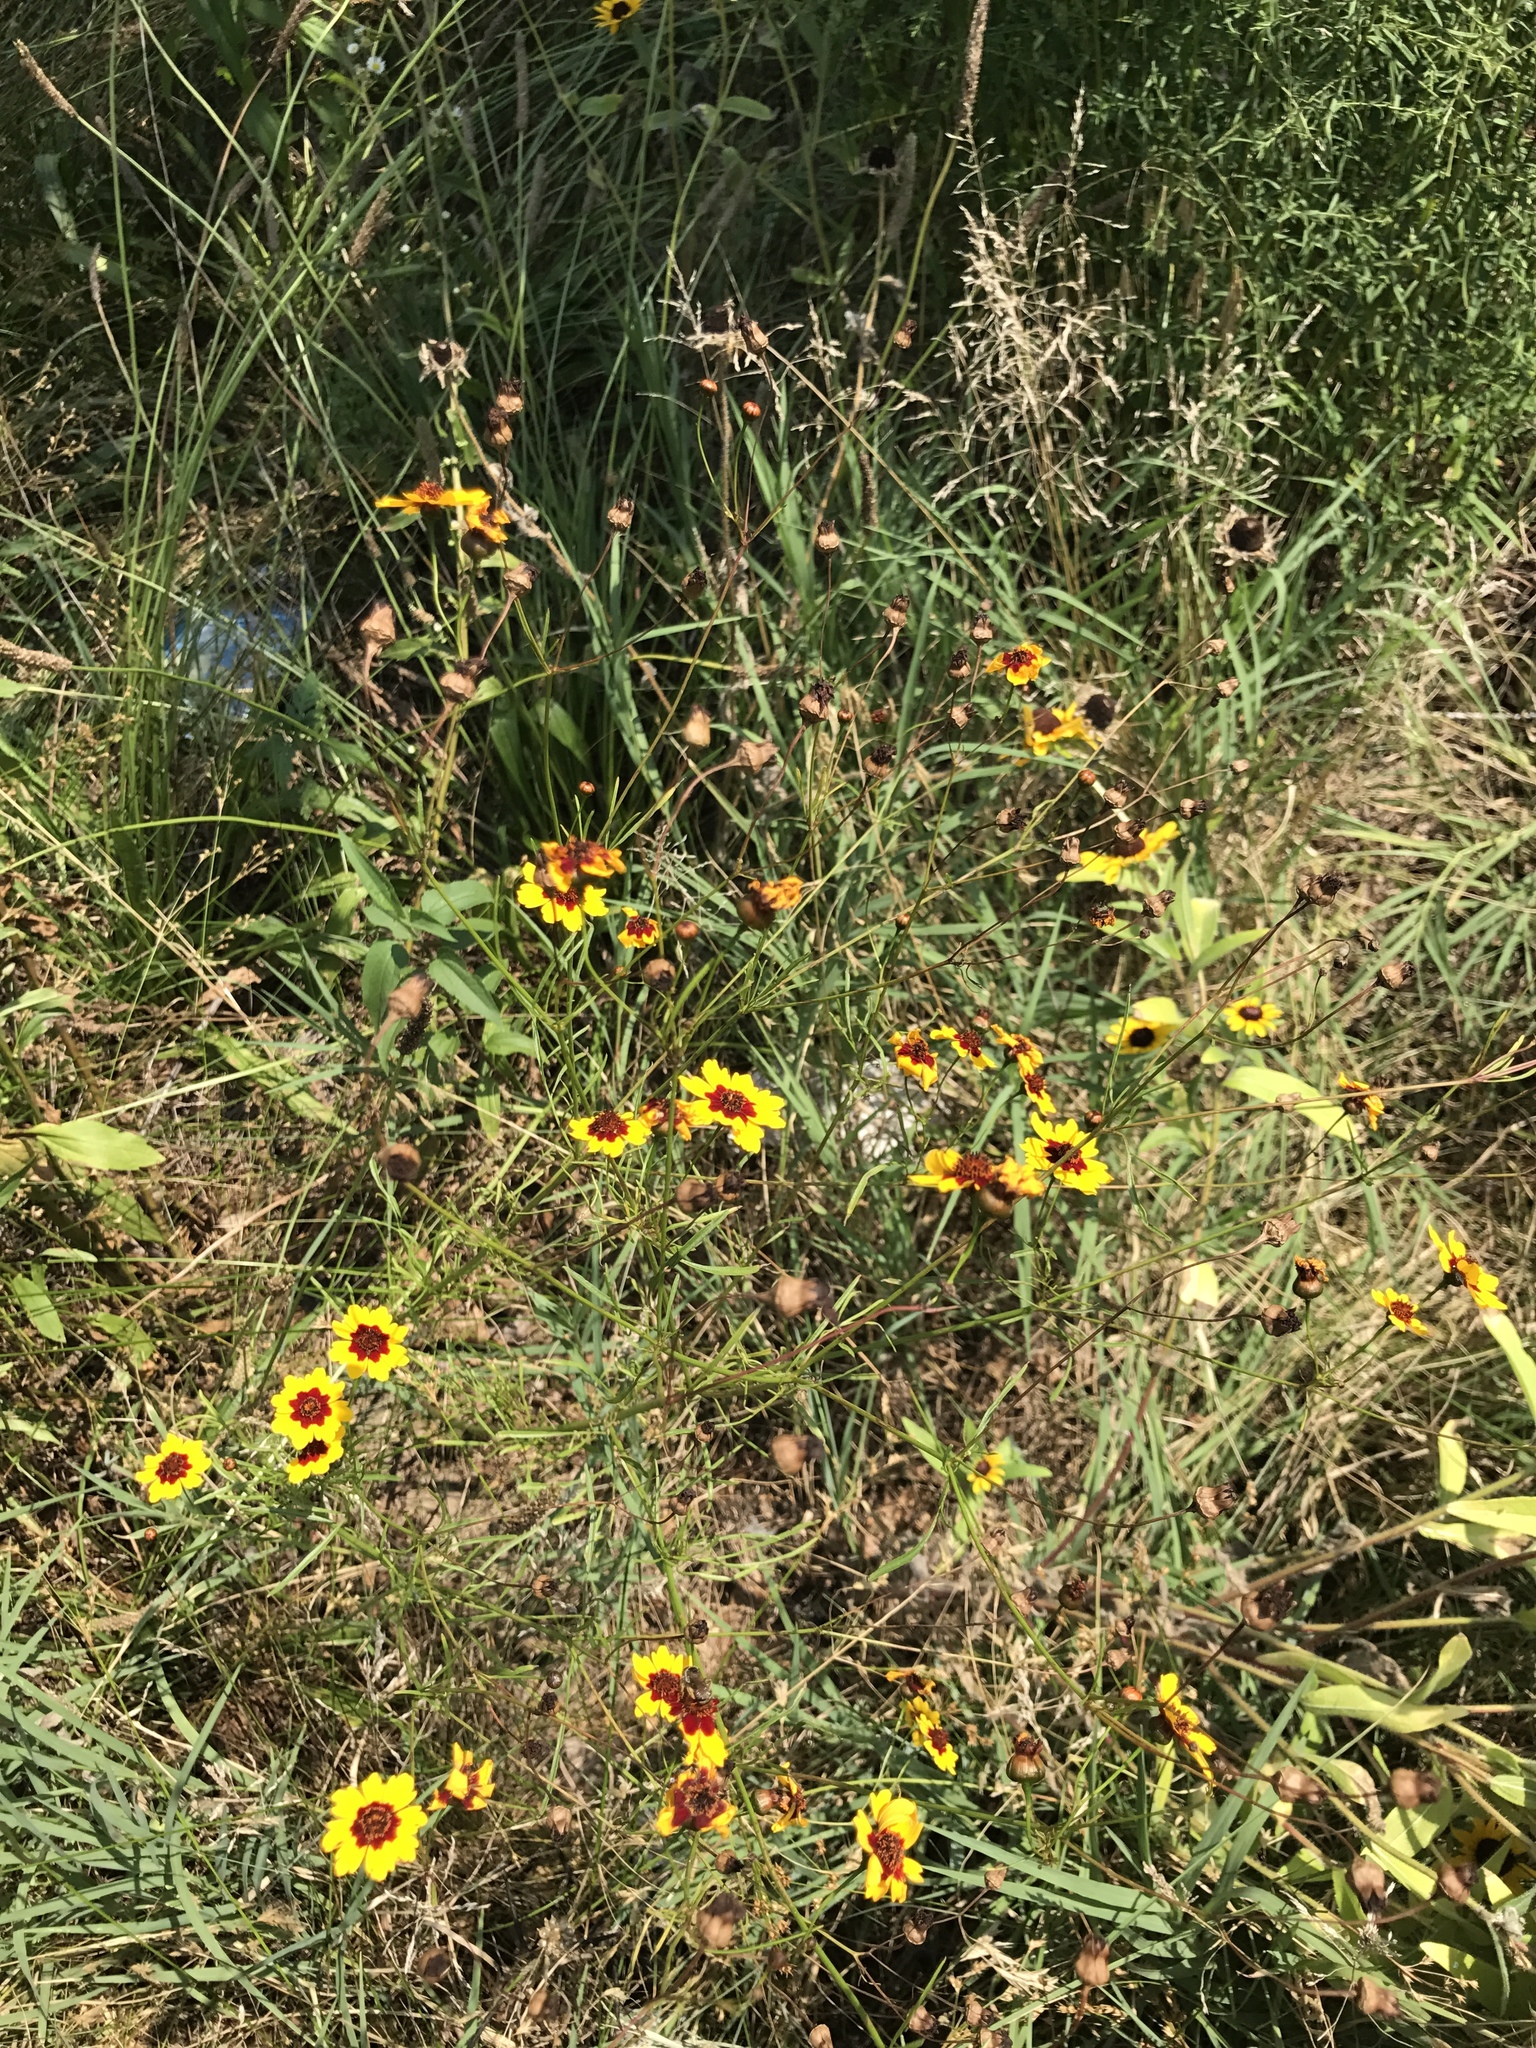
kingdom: Plantae
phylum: Tracheophyta
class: Magnoliopsida
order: Asterales
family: Asteraceae
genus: Coreopsis
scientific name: Coreopsis tinctoria
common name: Garden tickseed
